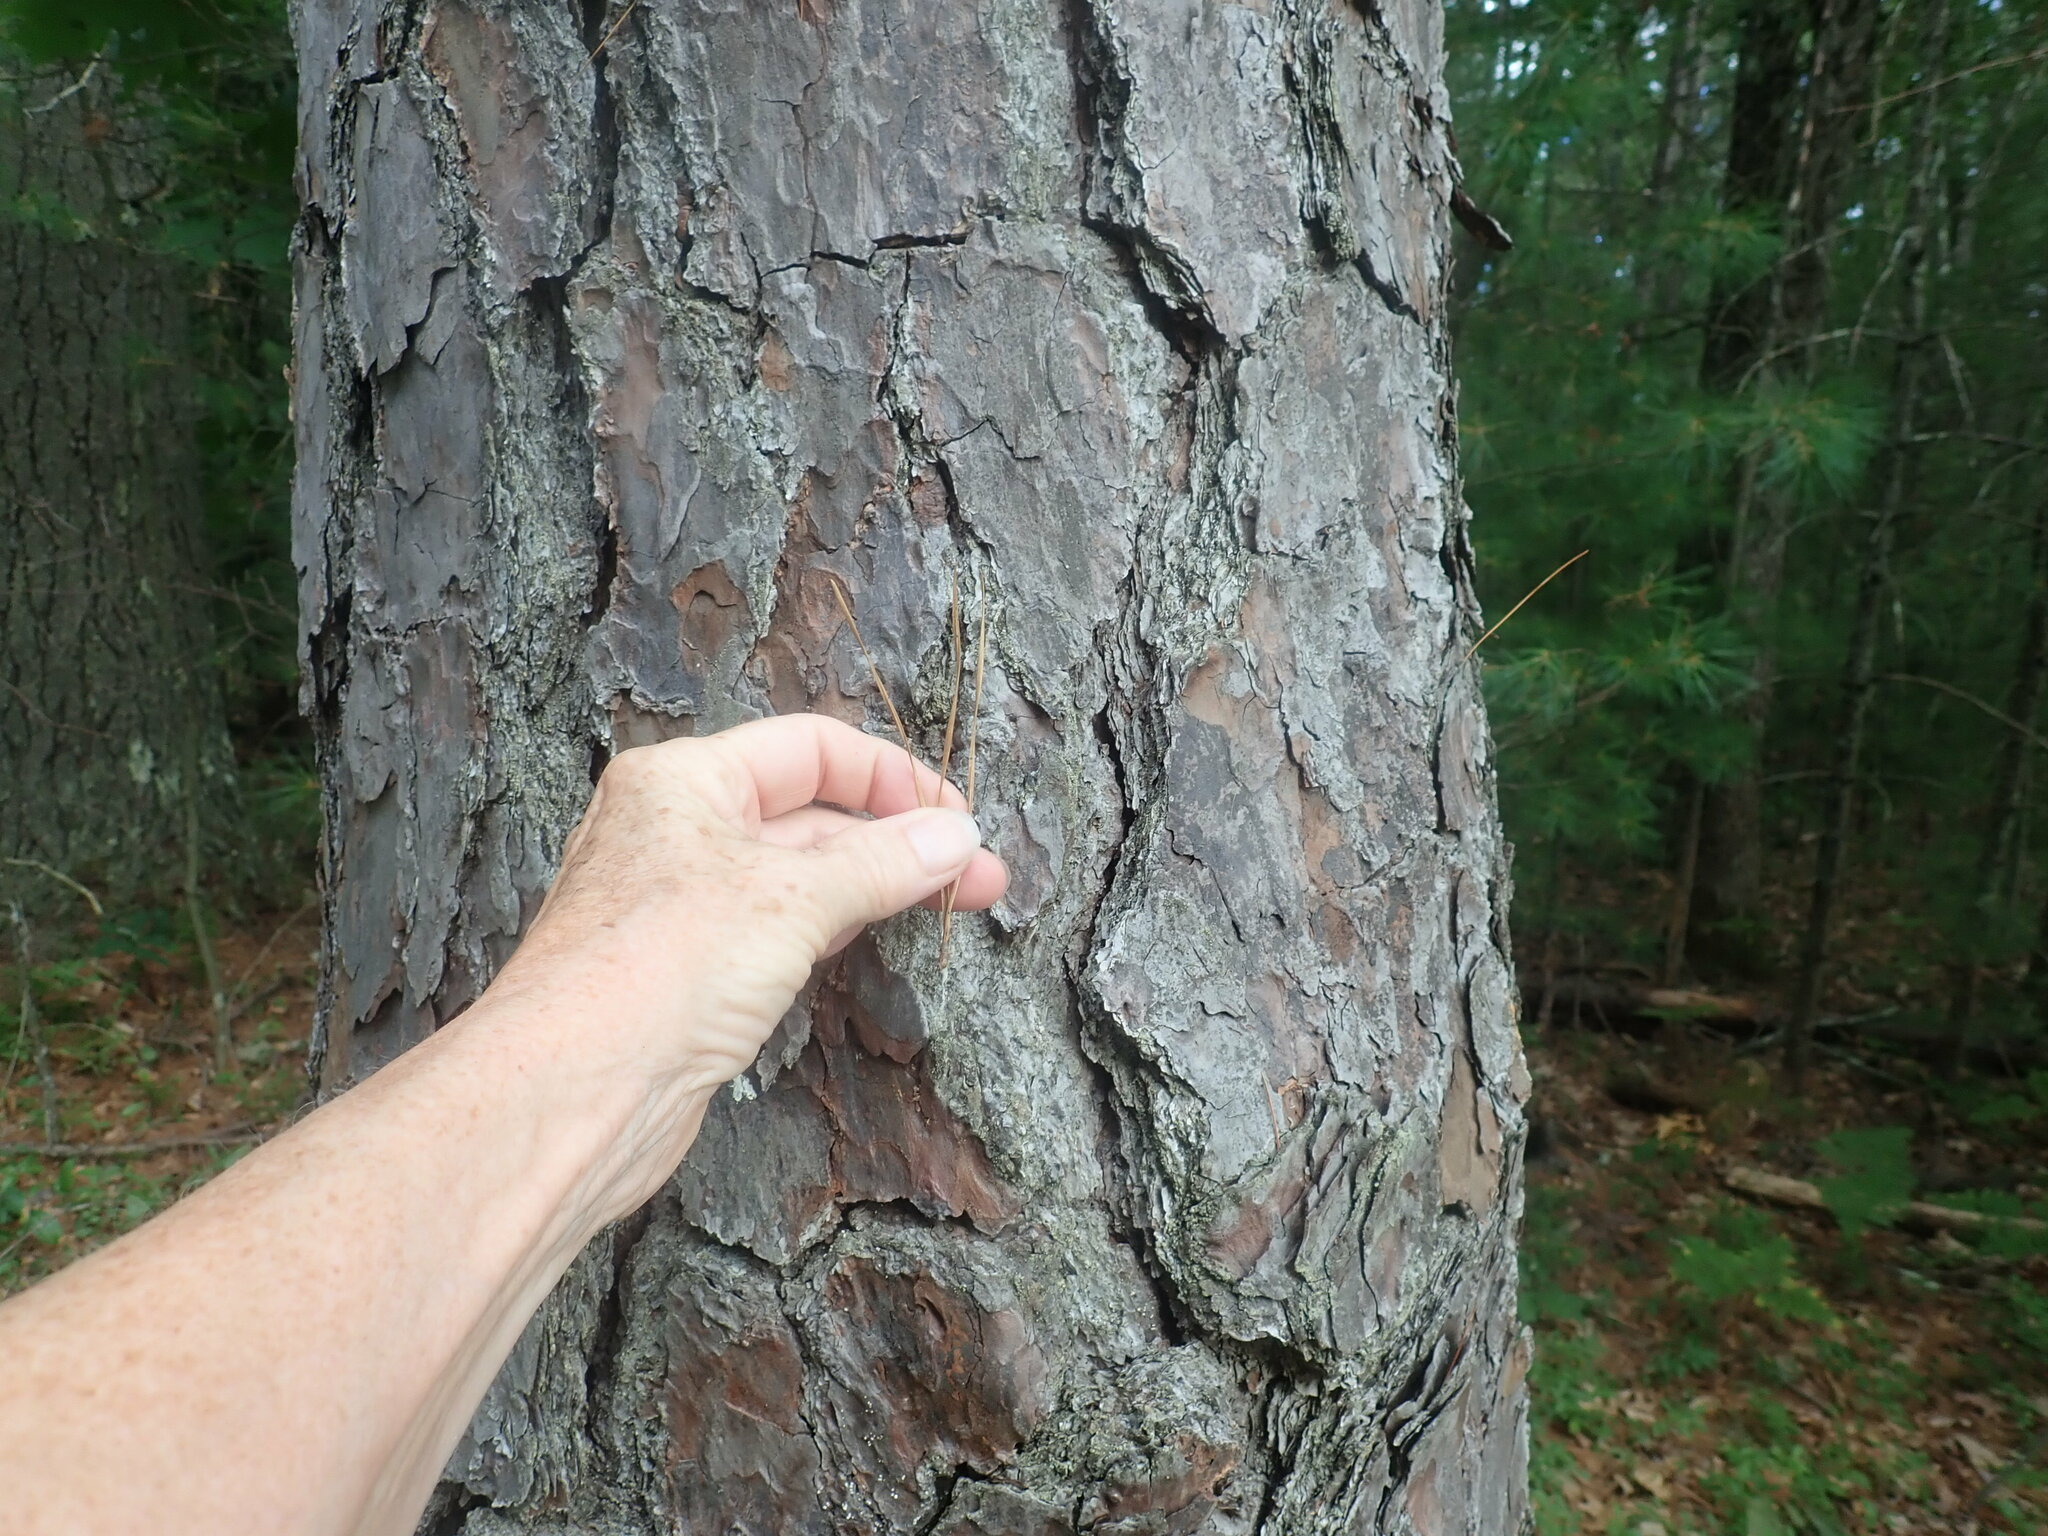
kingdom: Plantae
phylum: Tracheophyta
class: Pinopsida
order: Pinales
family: Pinaceae
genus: Pinus
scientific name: Pinus rigida
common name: Pitch pine
